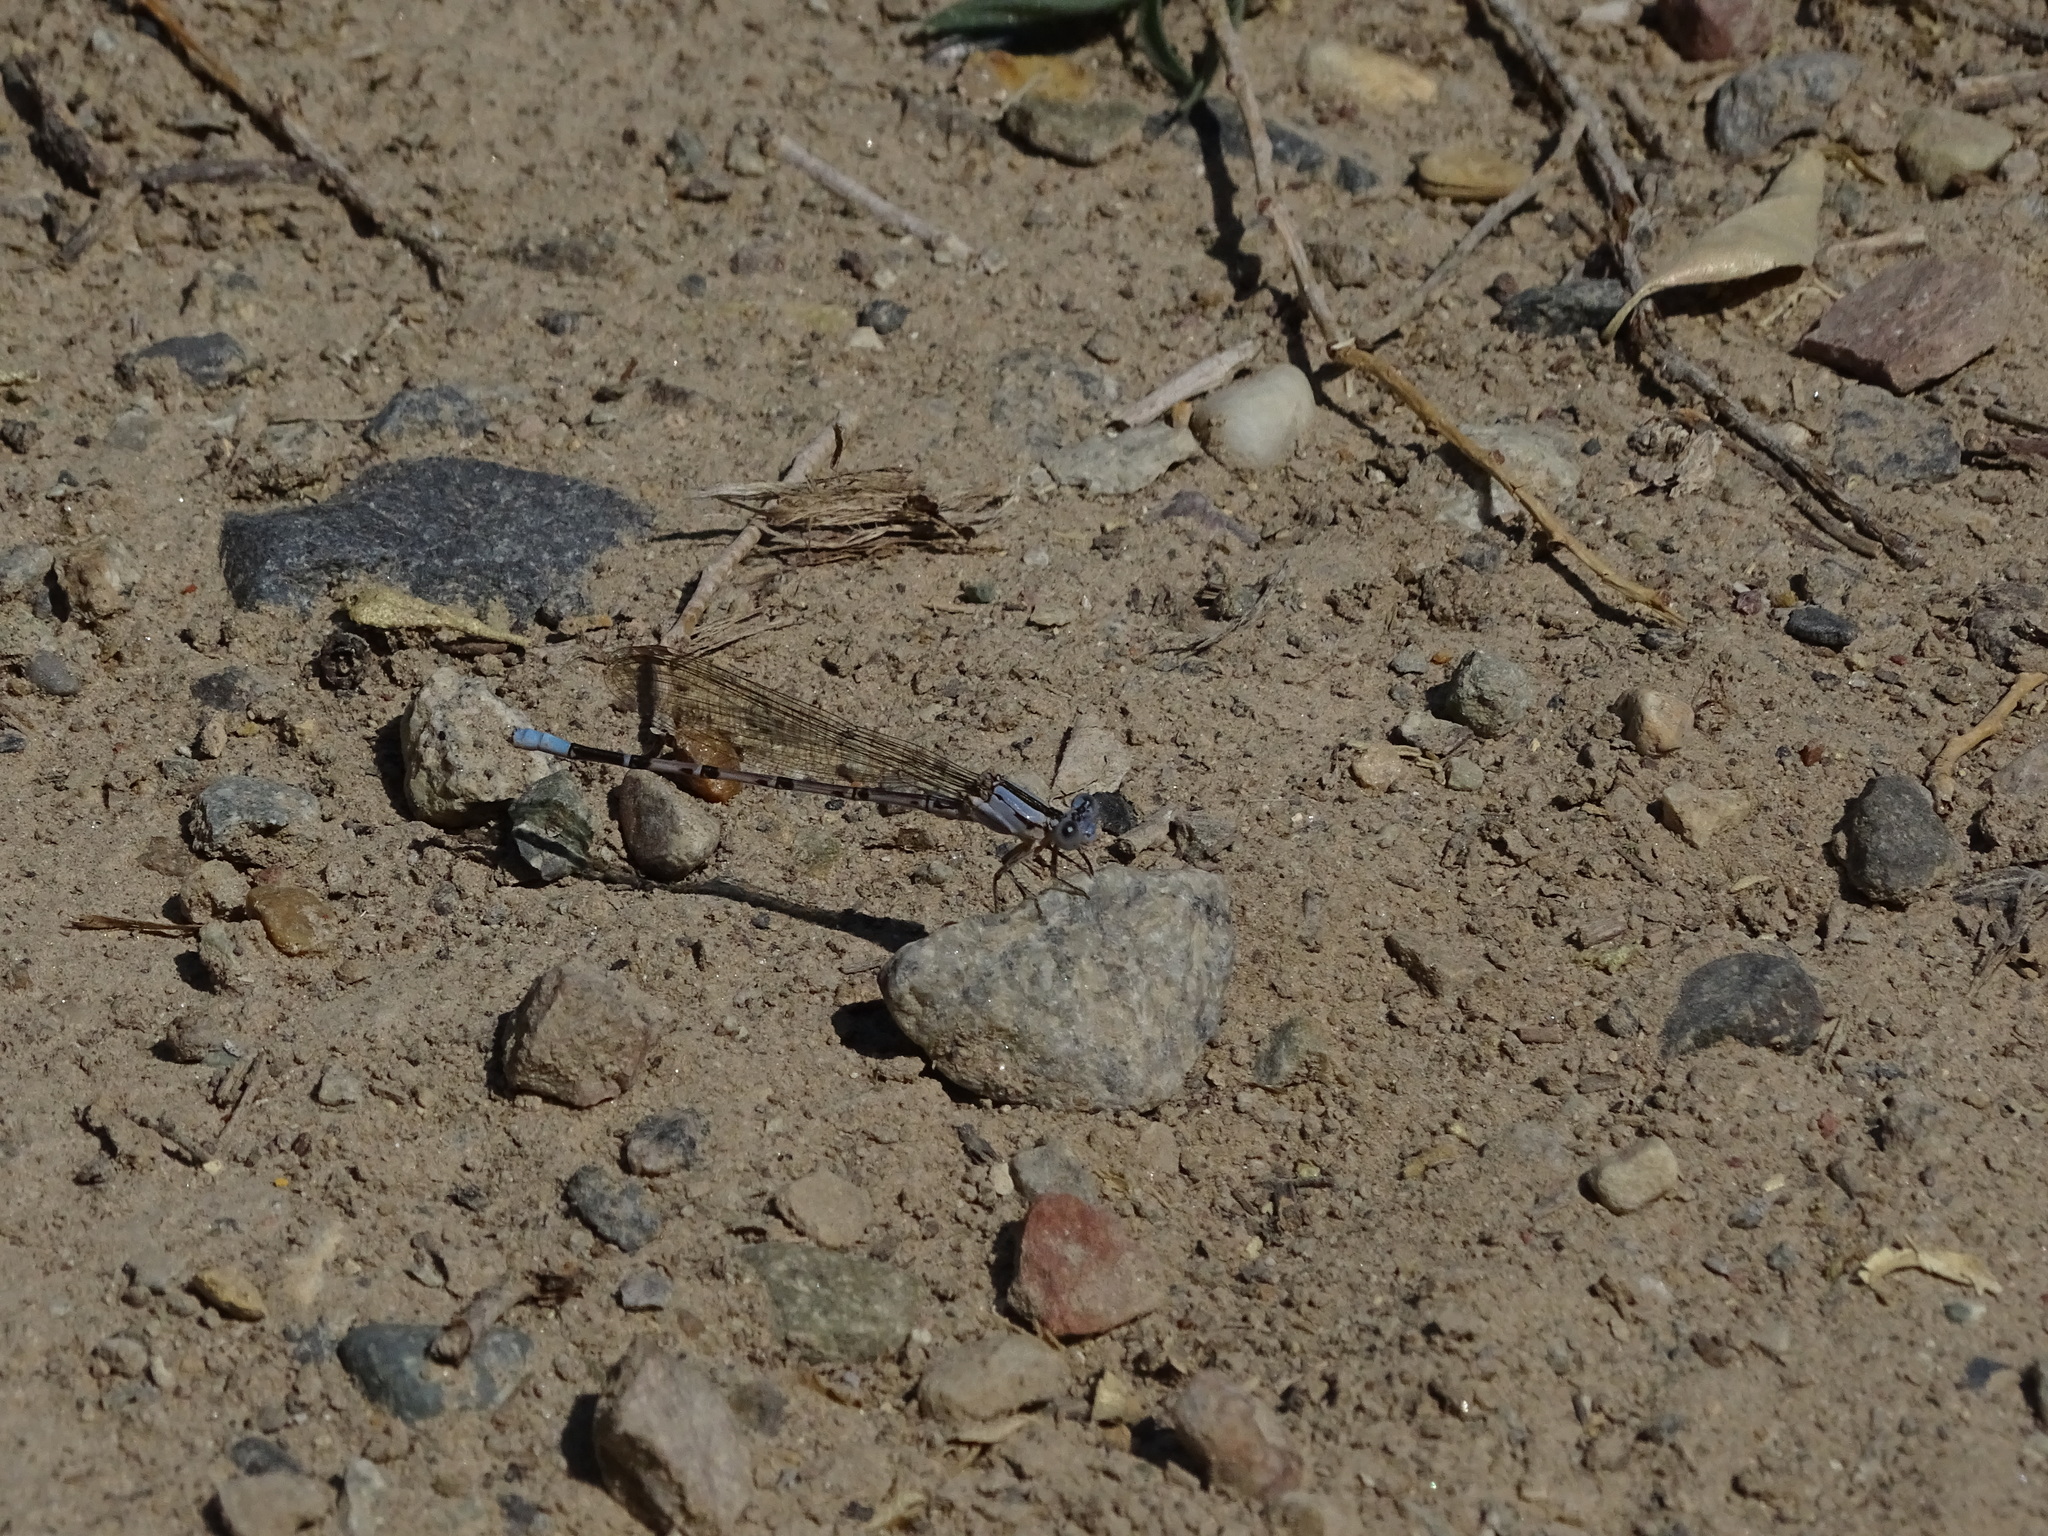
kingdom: Animalia
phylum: Arthropoda
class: Insecta
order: Odonata
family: Coenagrionidae
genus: Argia
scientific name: Argia vivida
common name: Vivid dancer
